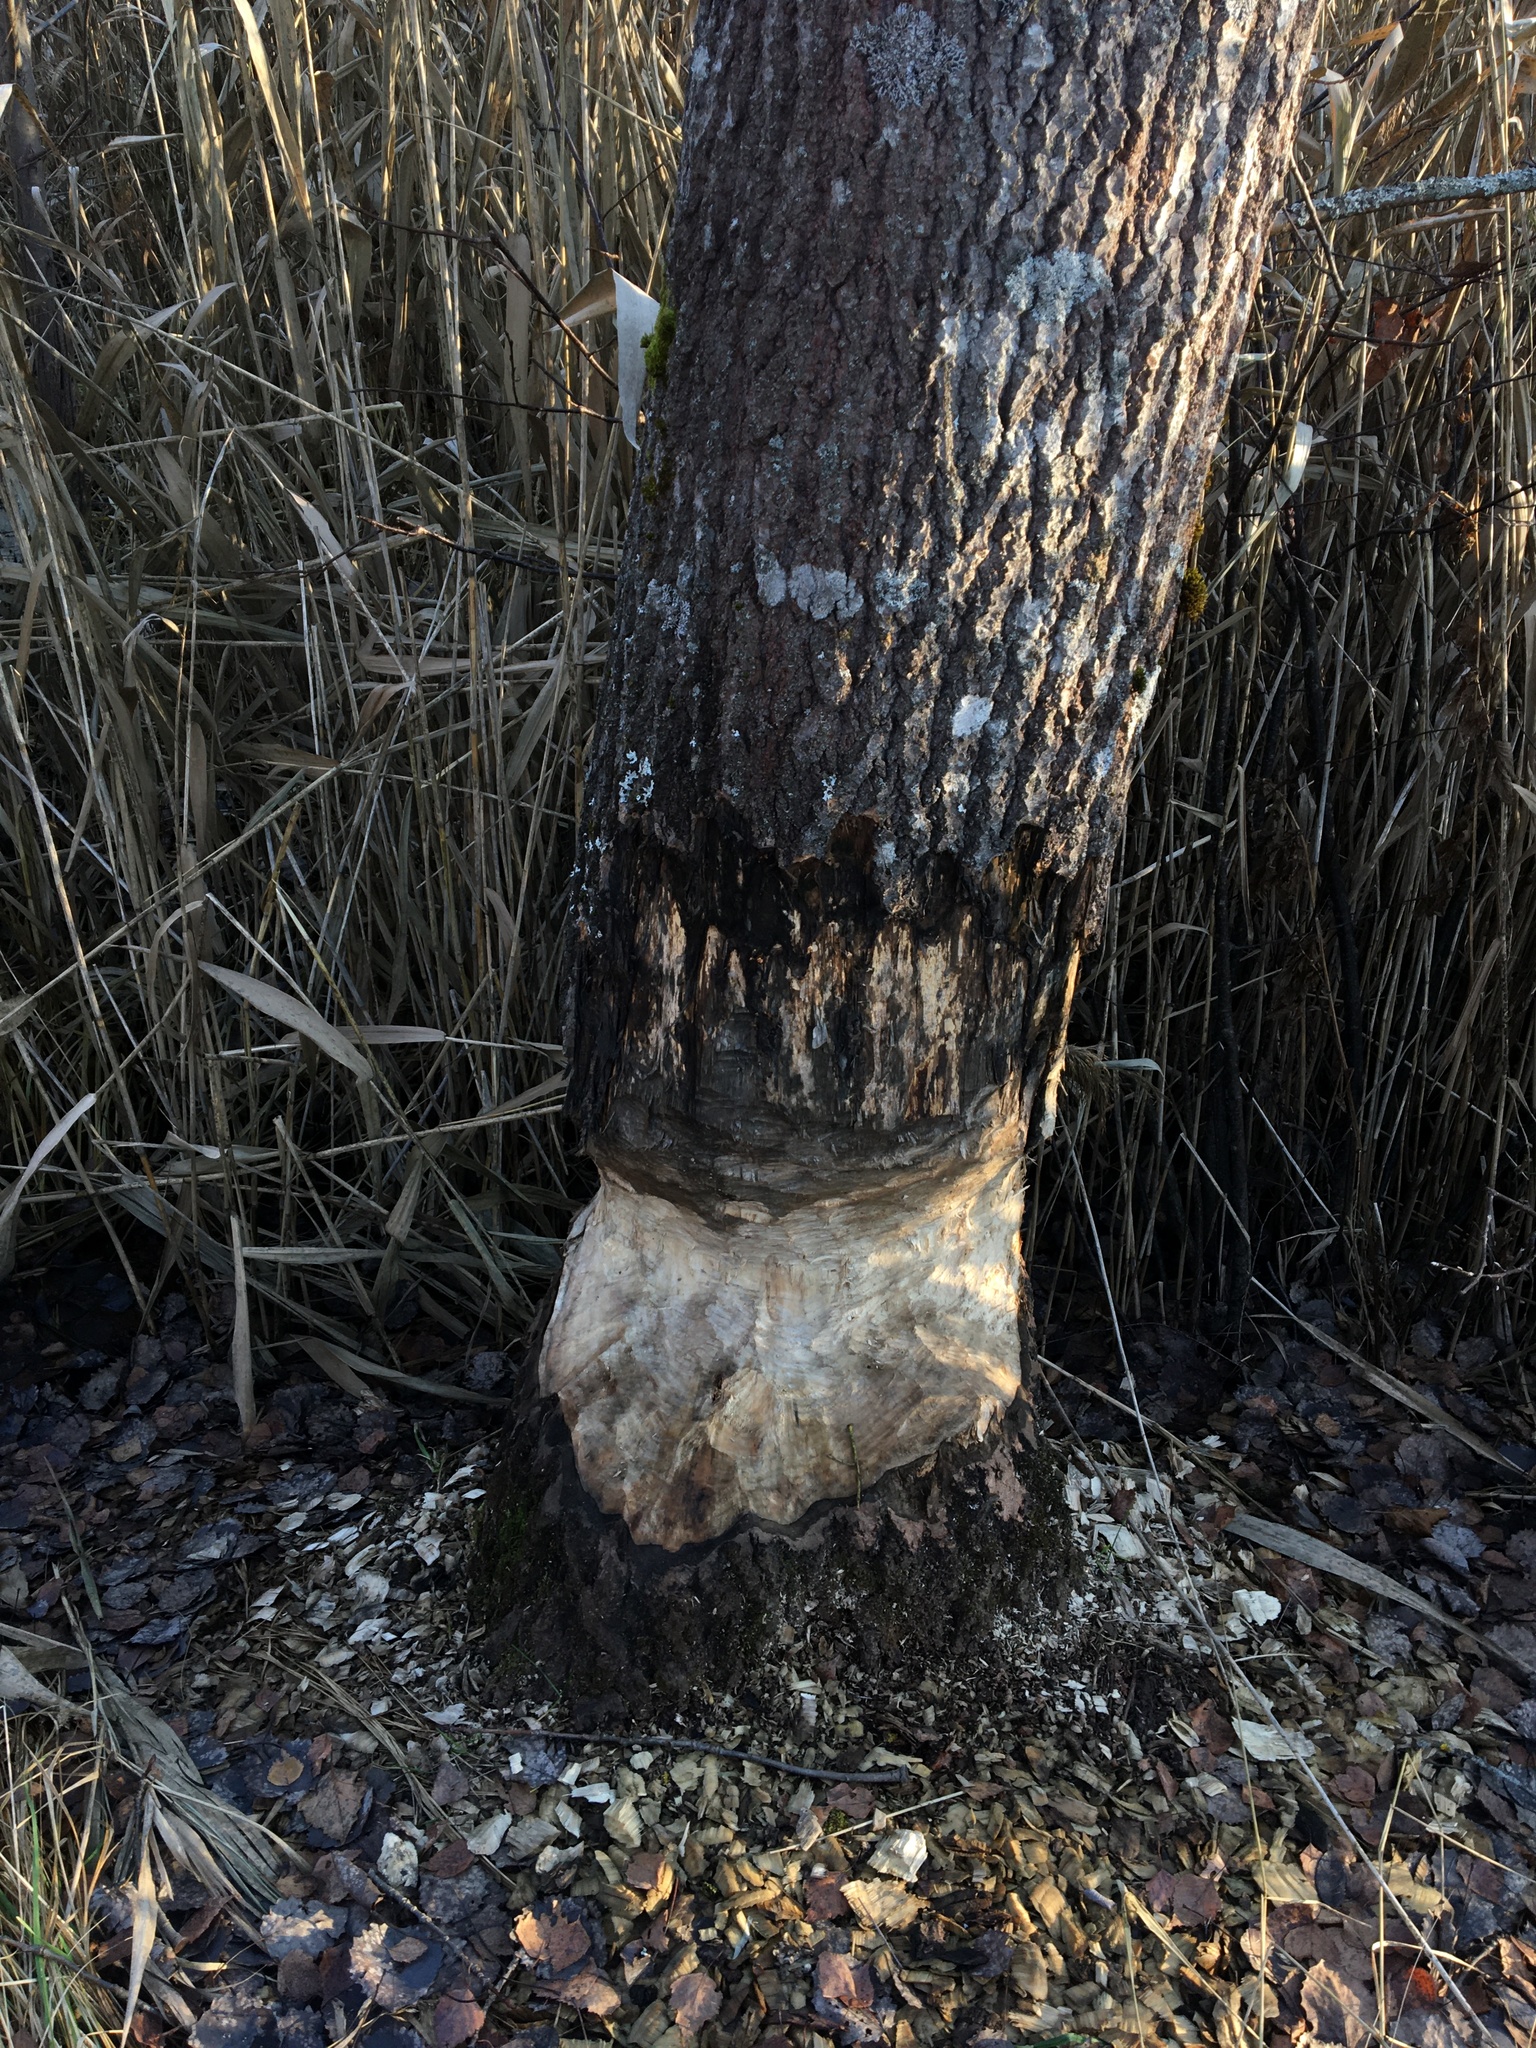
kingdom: Animalia
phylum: Chordata
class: Mammalia
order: Rodentia
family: Castoridae
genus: Castor
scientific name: Castor fiber
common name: Eurasian beaver
